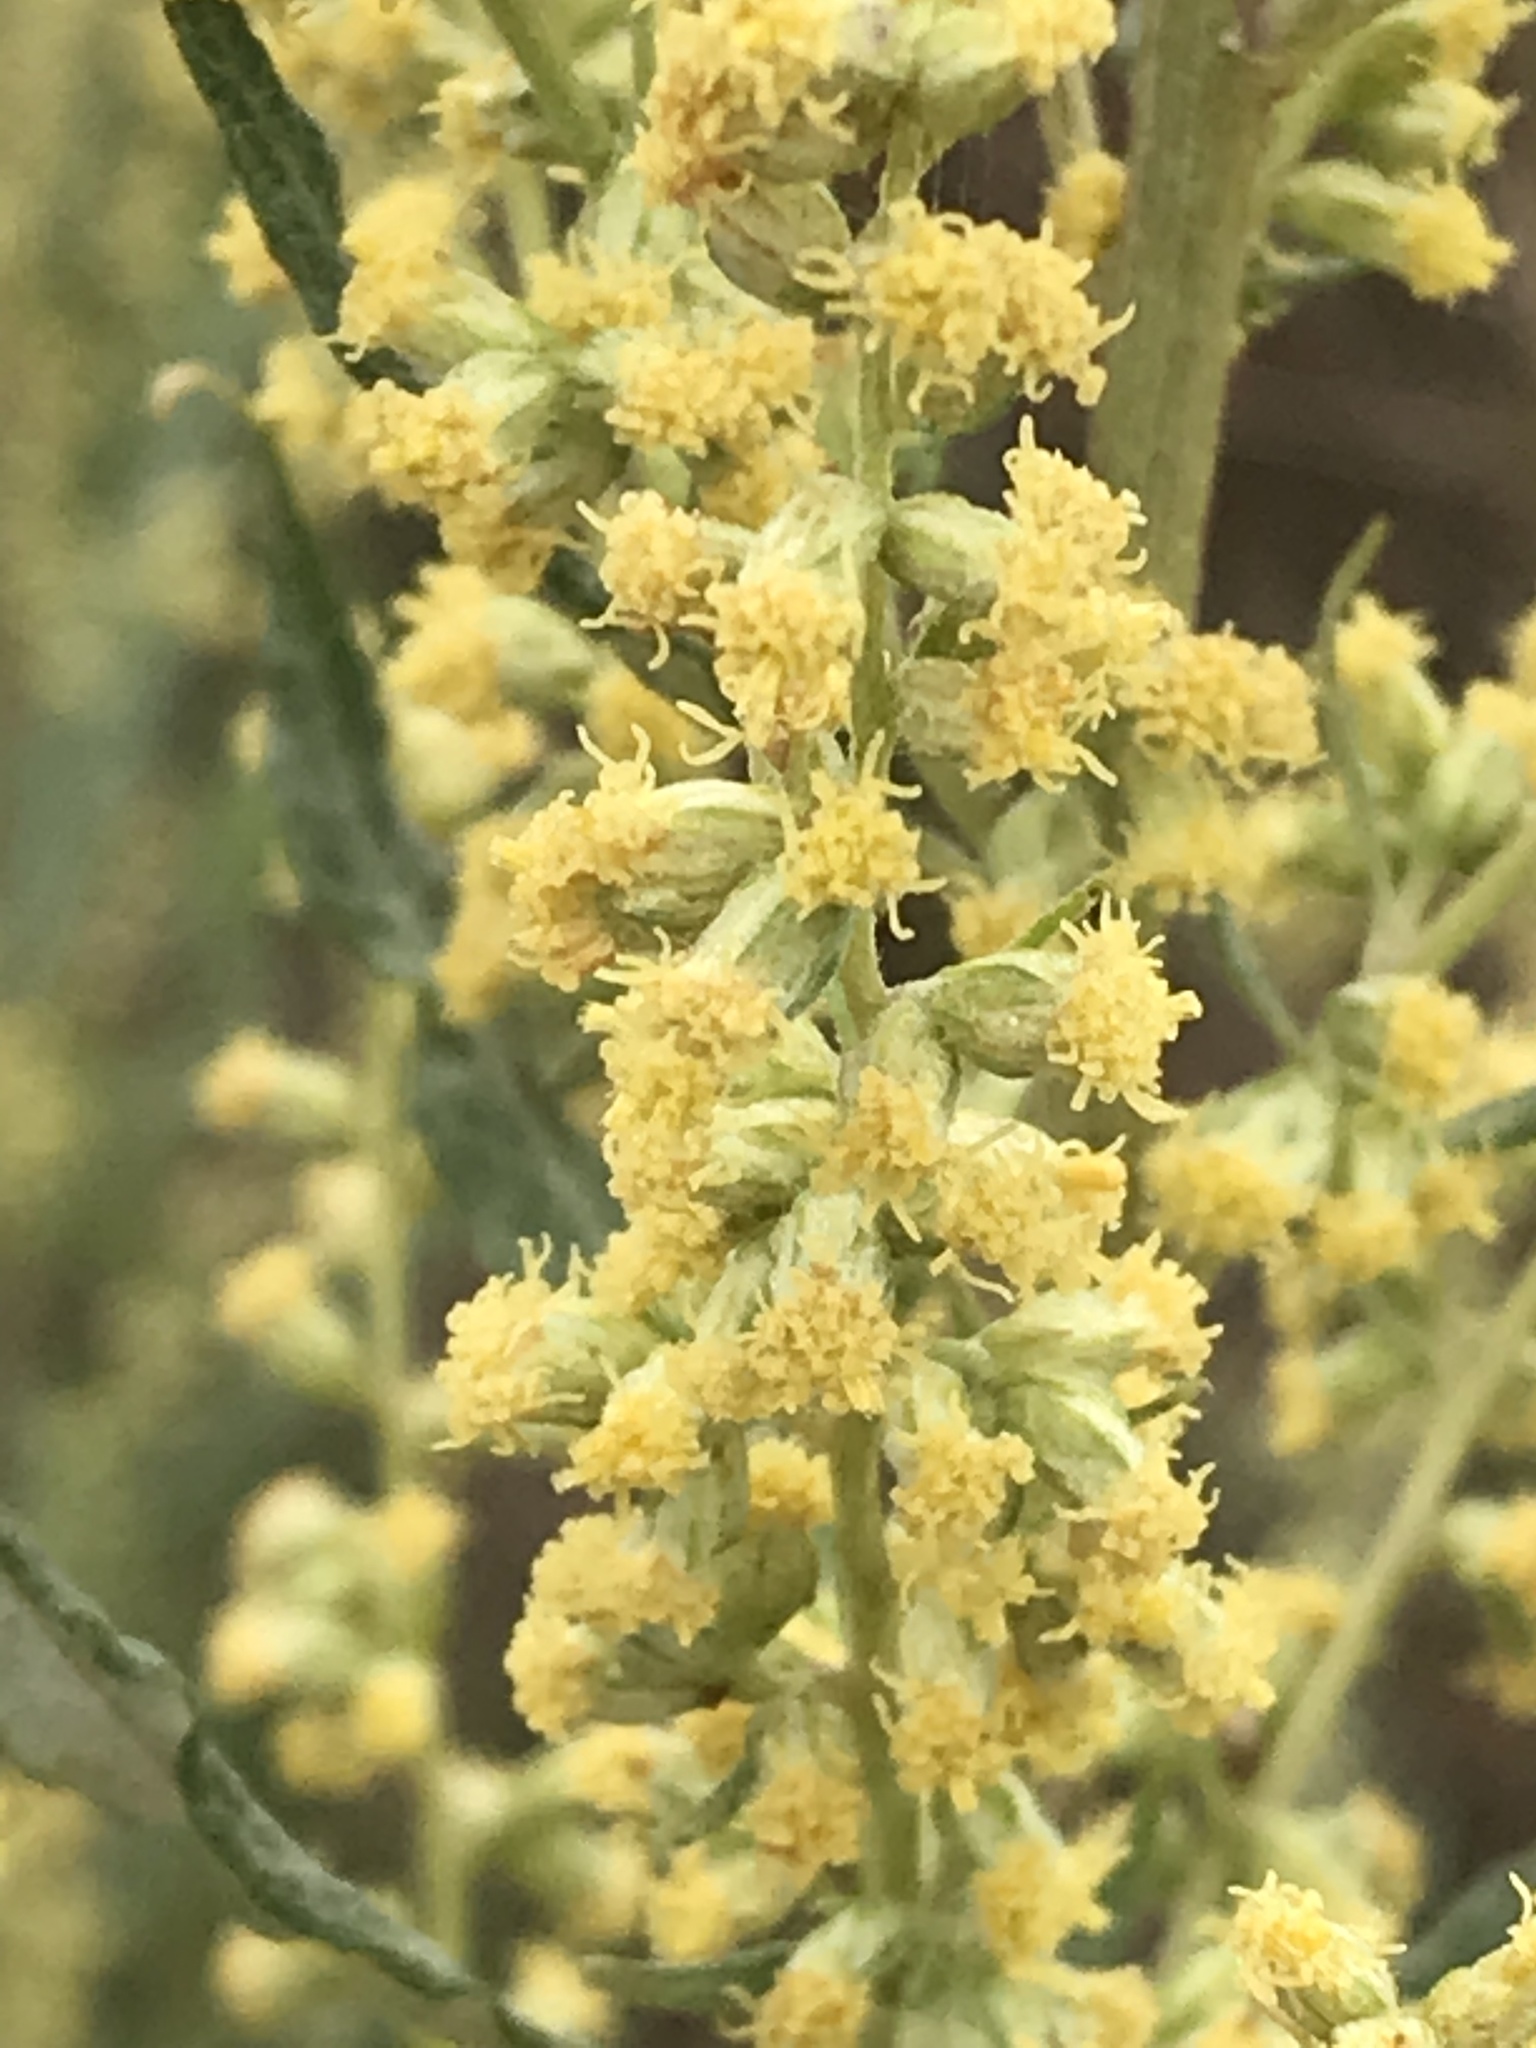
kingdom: Plantae
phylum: Tracheophyta
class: Magnoliopsida
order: Asterales
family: Asteraceae
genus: Artemisia
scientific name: Artemisia douglasiana
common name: Northwest mugwort
